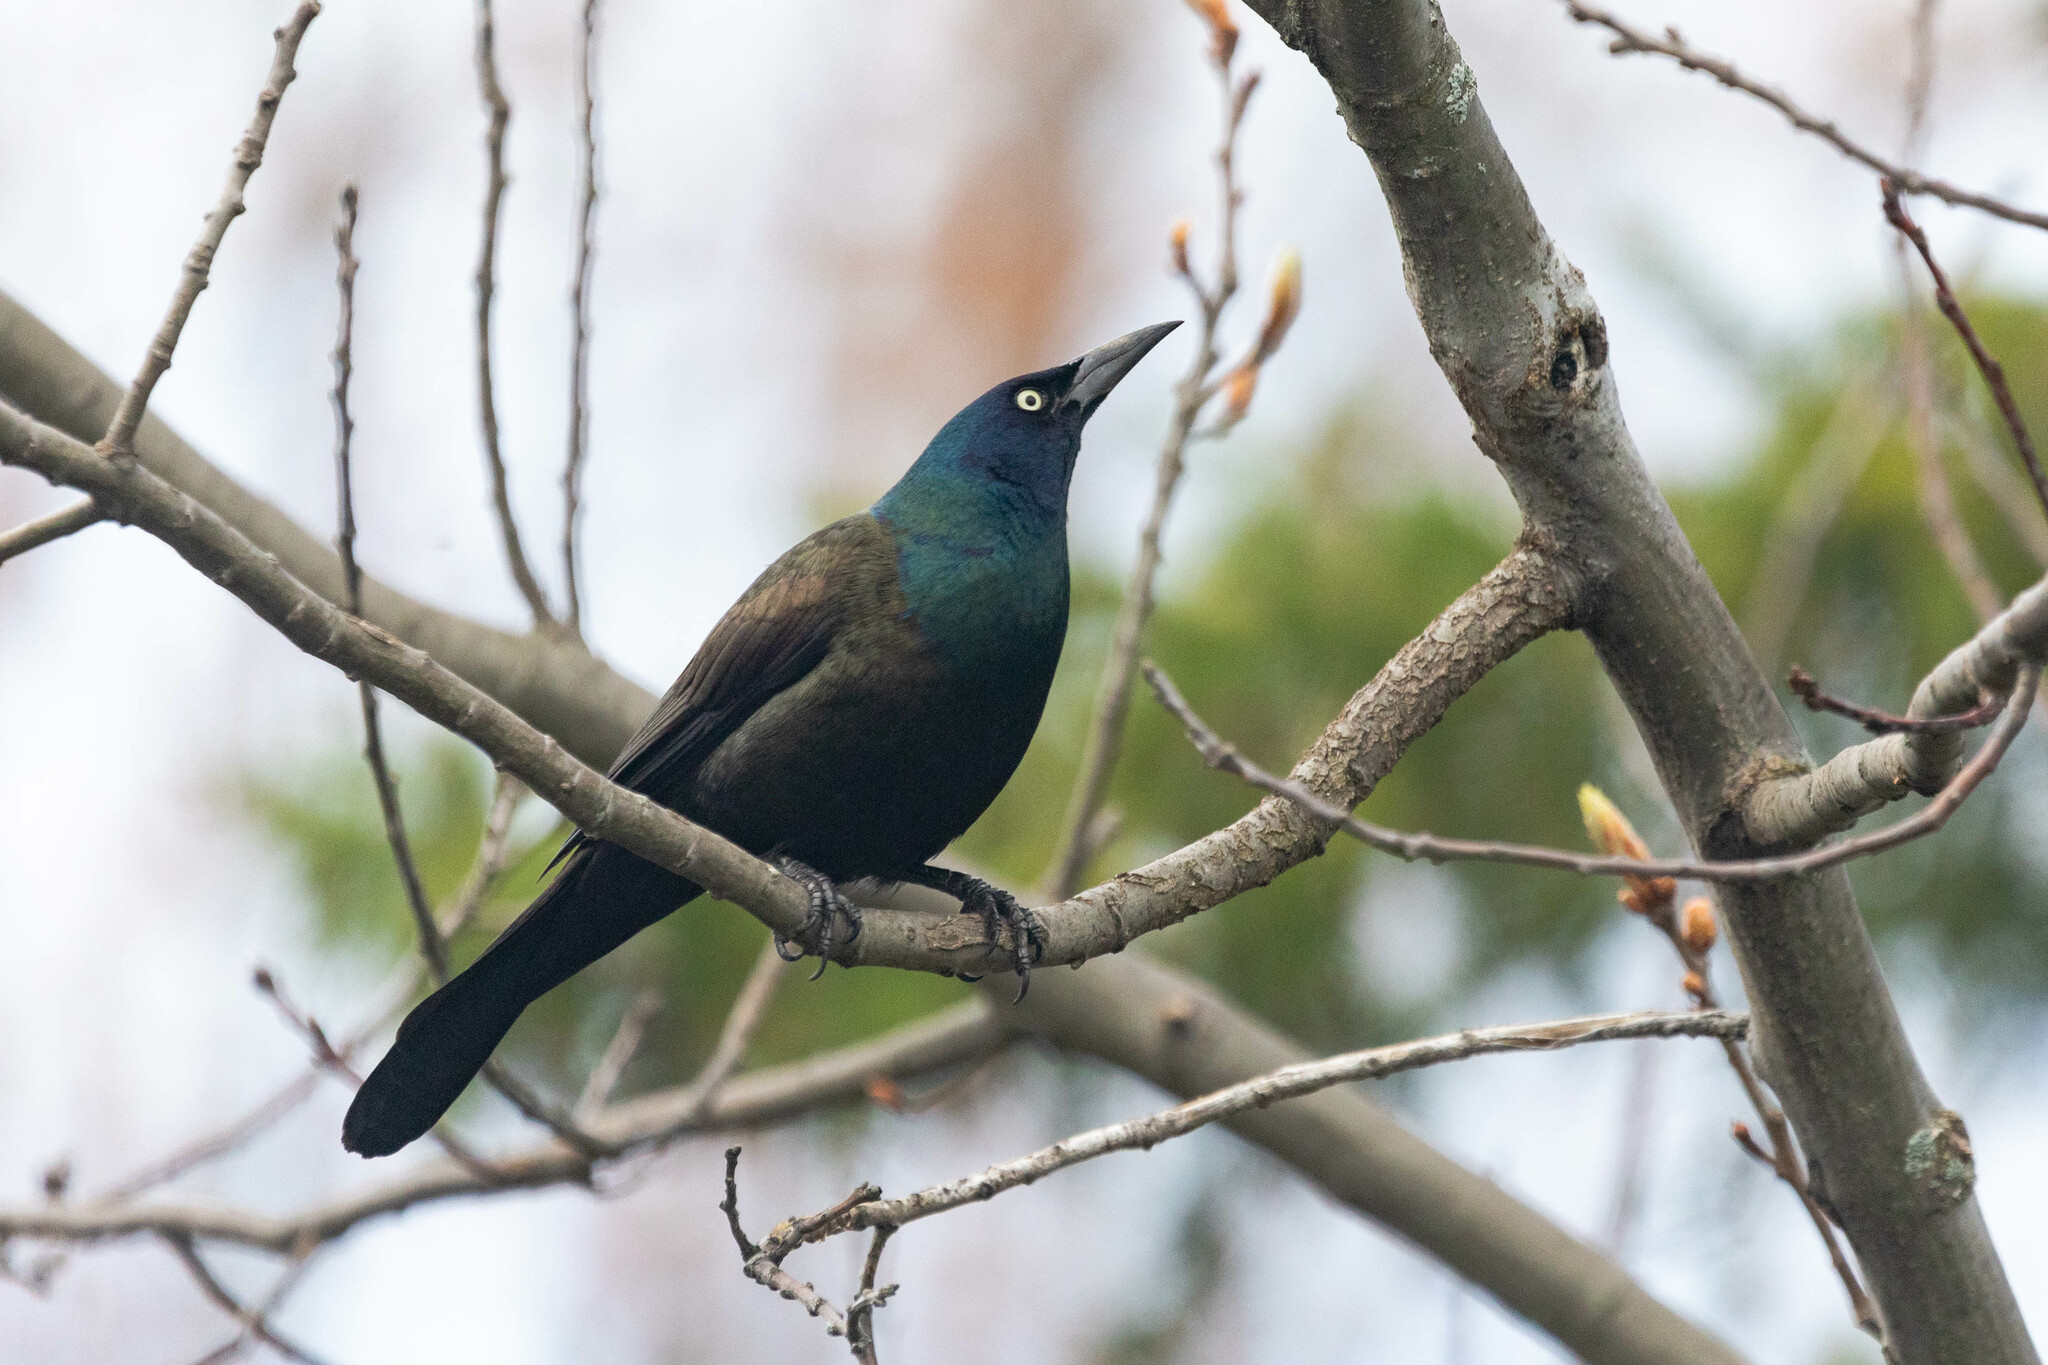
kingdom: Animalia
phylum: Chordata
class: Aves
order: Passeriformes
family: Icteridae
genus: Quiscalus
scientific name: Quiscalus quiscula
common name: Common grackle
